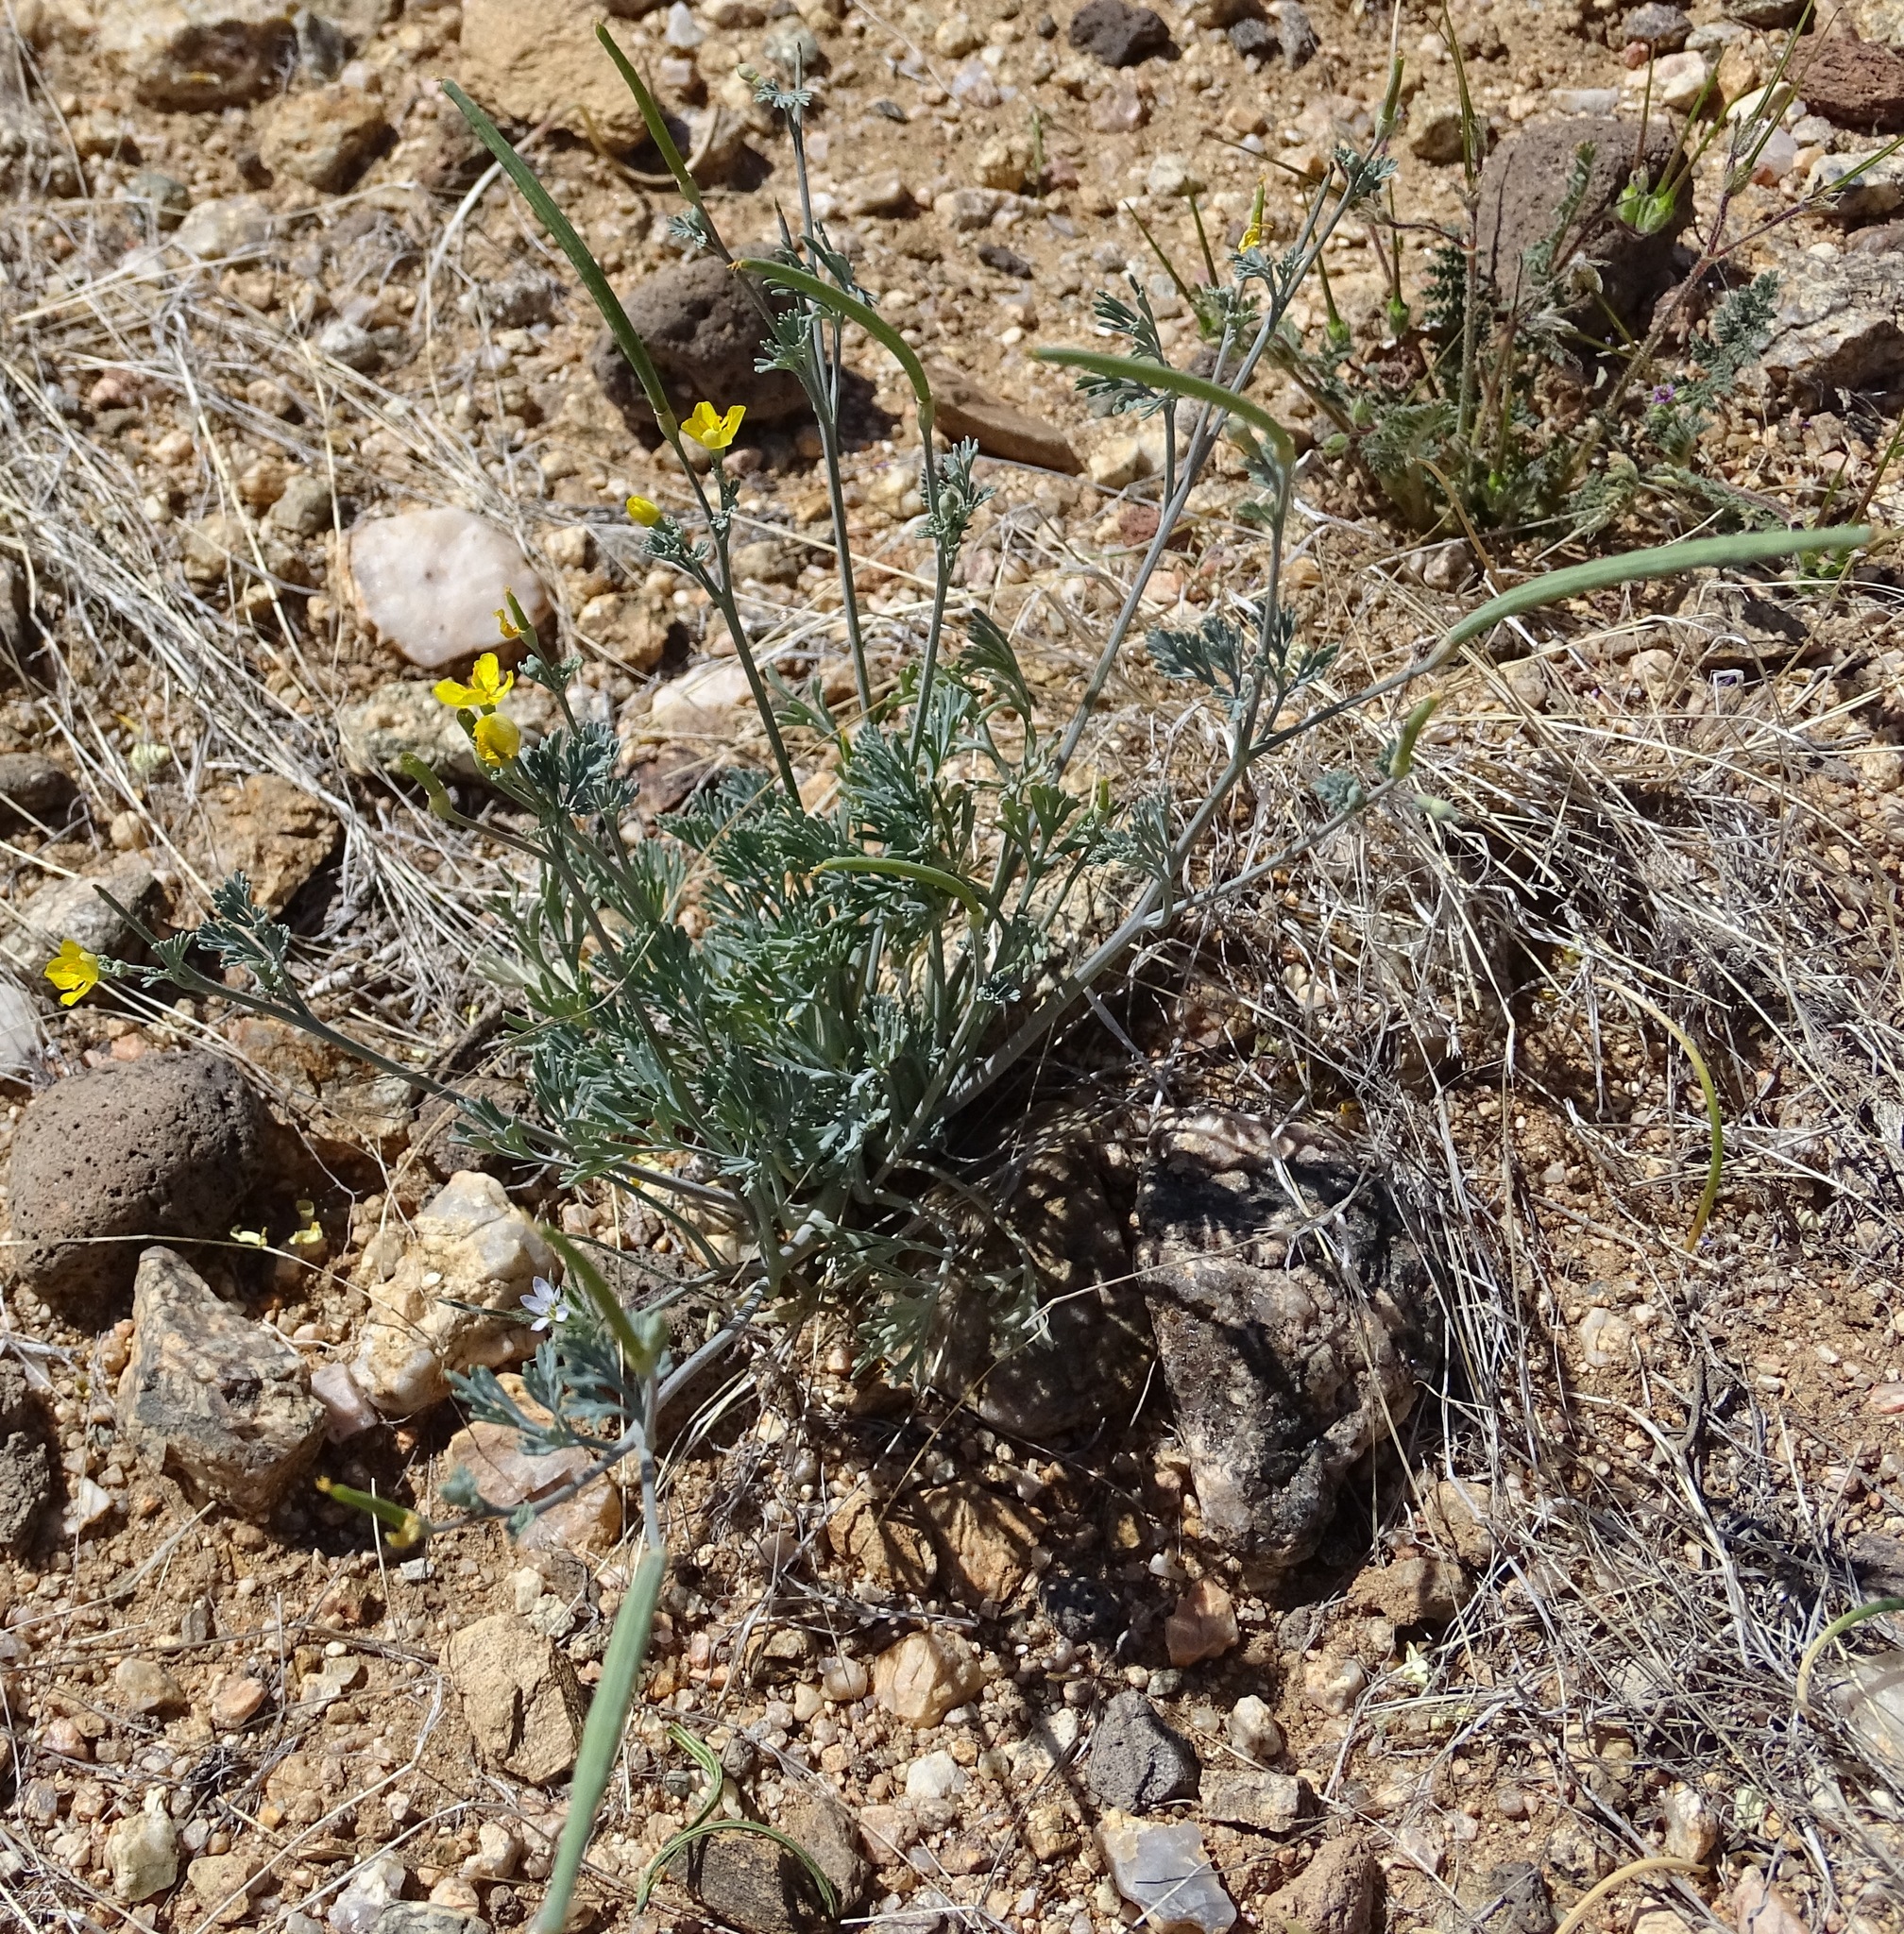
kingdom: Plantae
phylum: Tracheophyta
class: Magnoliopsida
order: Ranunculales
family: Papaveraceae
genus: Eschscholzia
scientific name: Eschscholzia minutiflora
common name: Small-flower california-poppy
